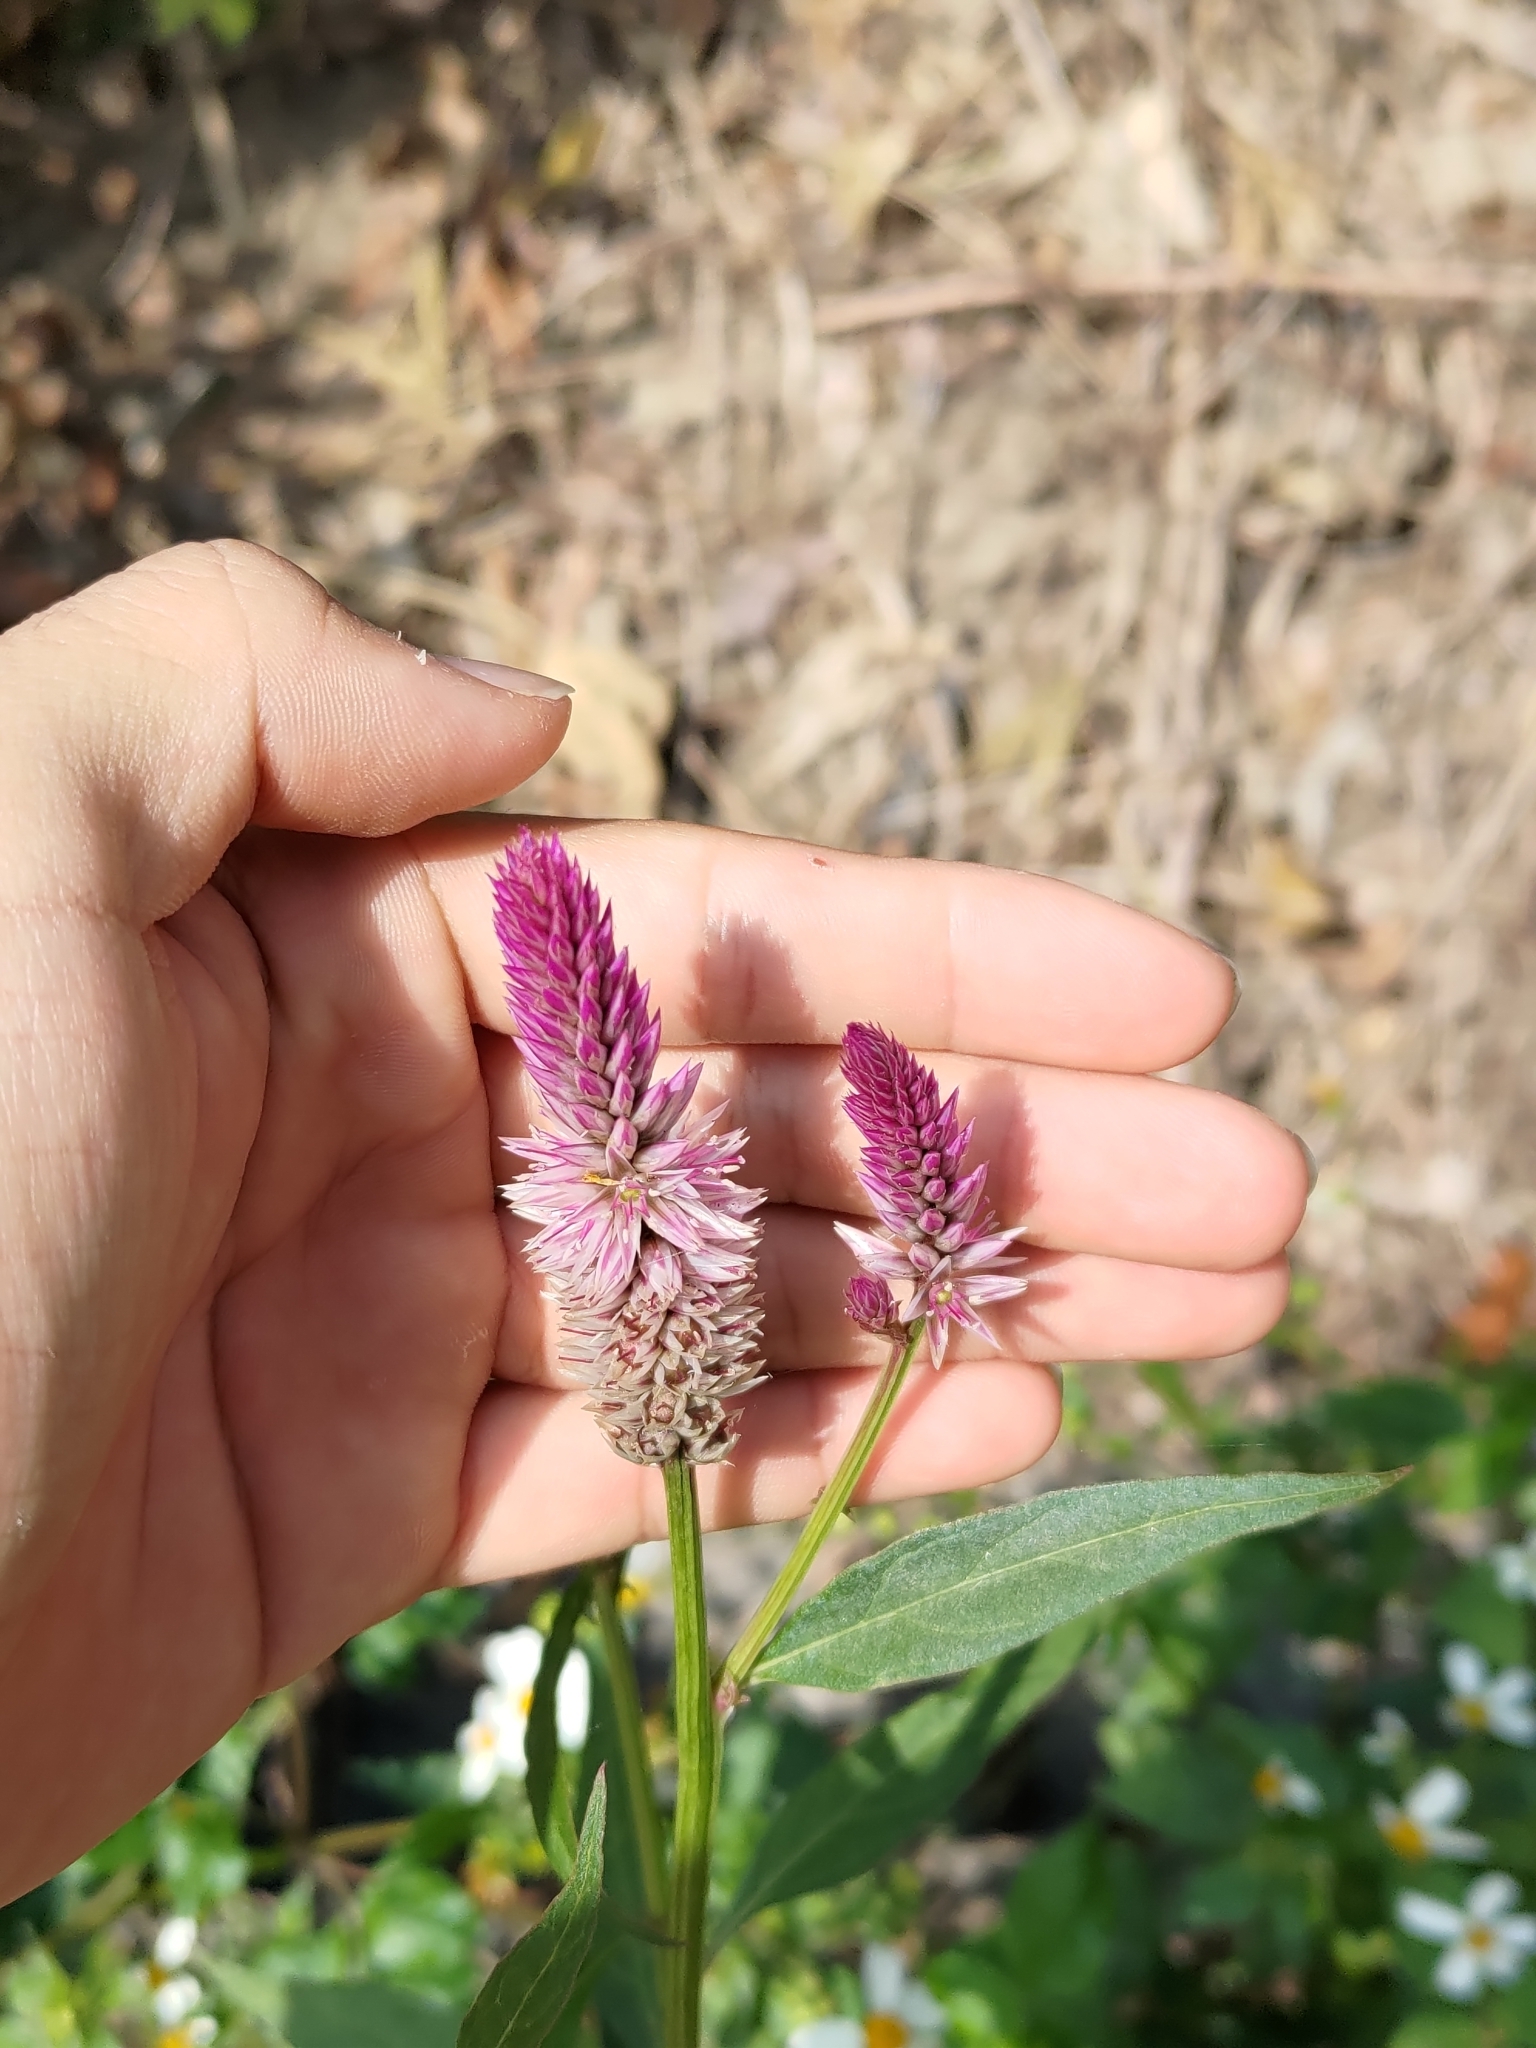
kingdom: Plantae
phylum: Tracheophyta
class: Magnoliopsida
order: Caryophyllales
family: Amaranthaceae
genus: Celosia
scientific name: Celosia argentea
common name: Feather cockscomb
